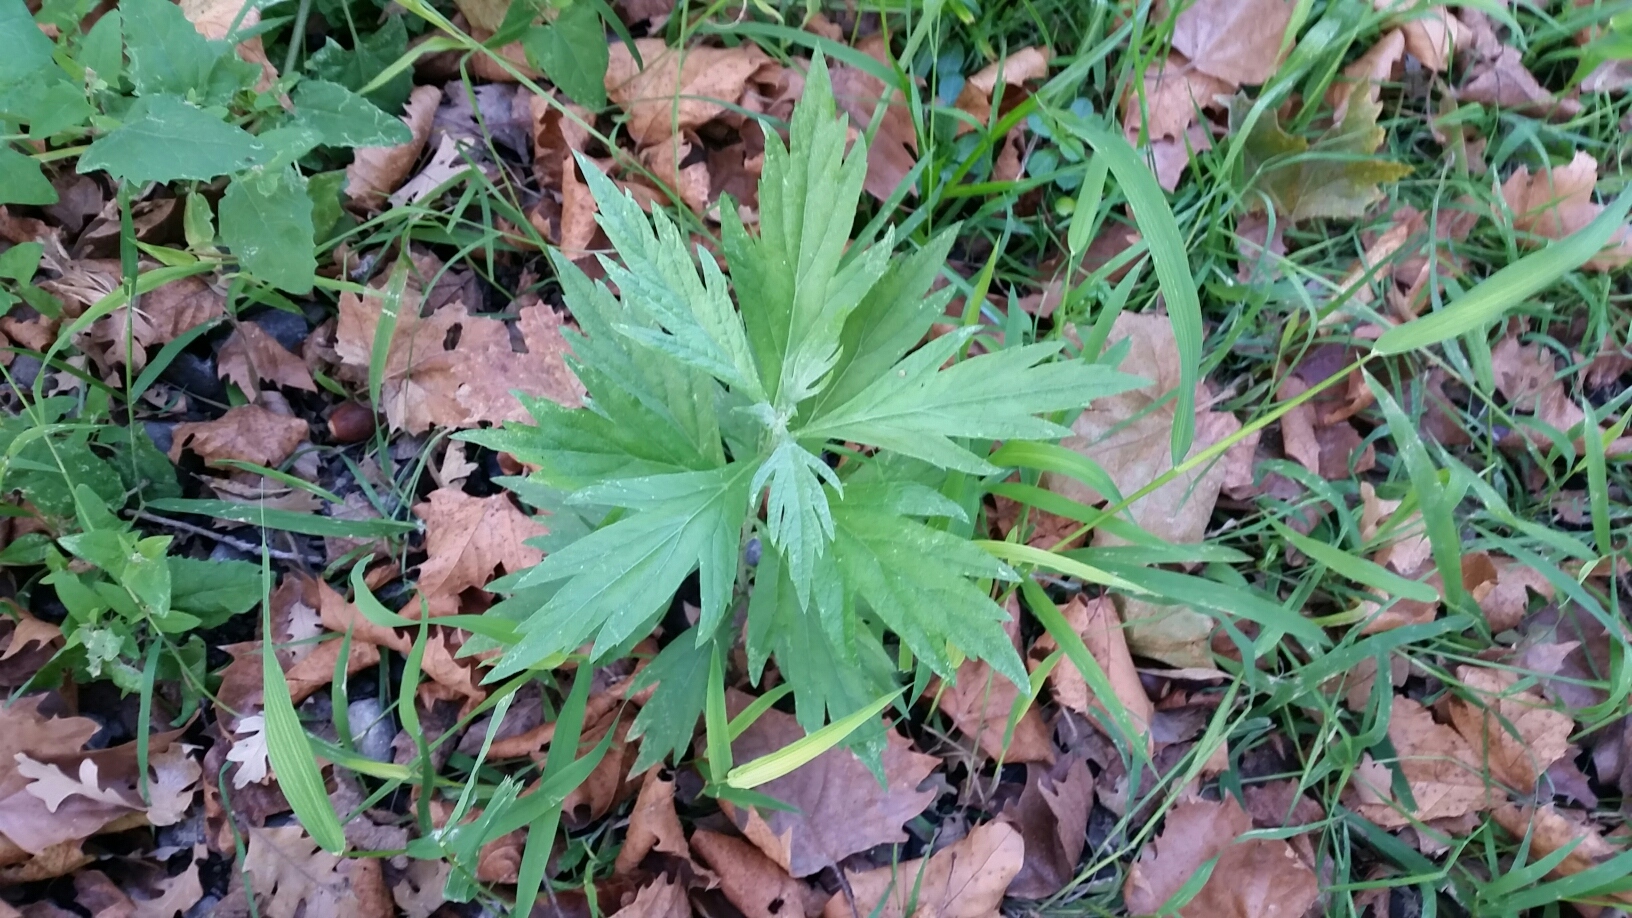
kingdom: Plantae
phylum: Tracheophyta
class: Magnoliopsida
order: Asterales
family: Asteraceae
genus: Artemisia
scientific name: Artemisia douglasiana
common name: Northwest mugwort
